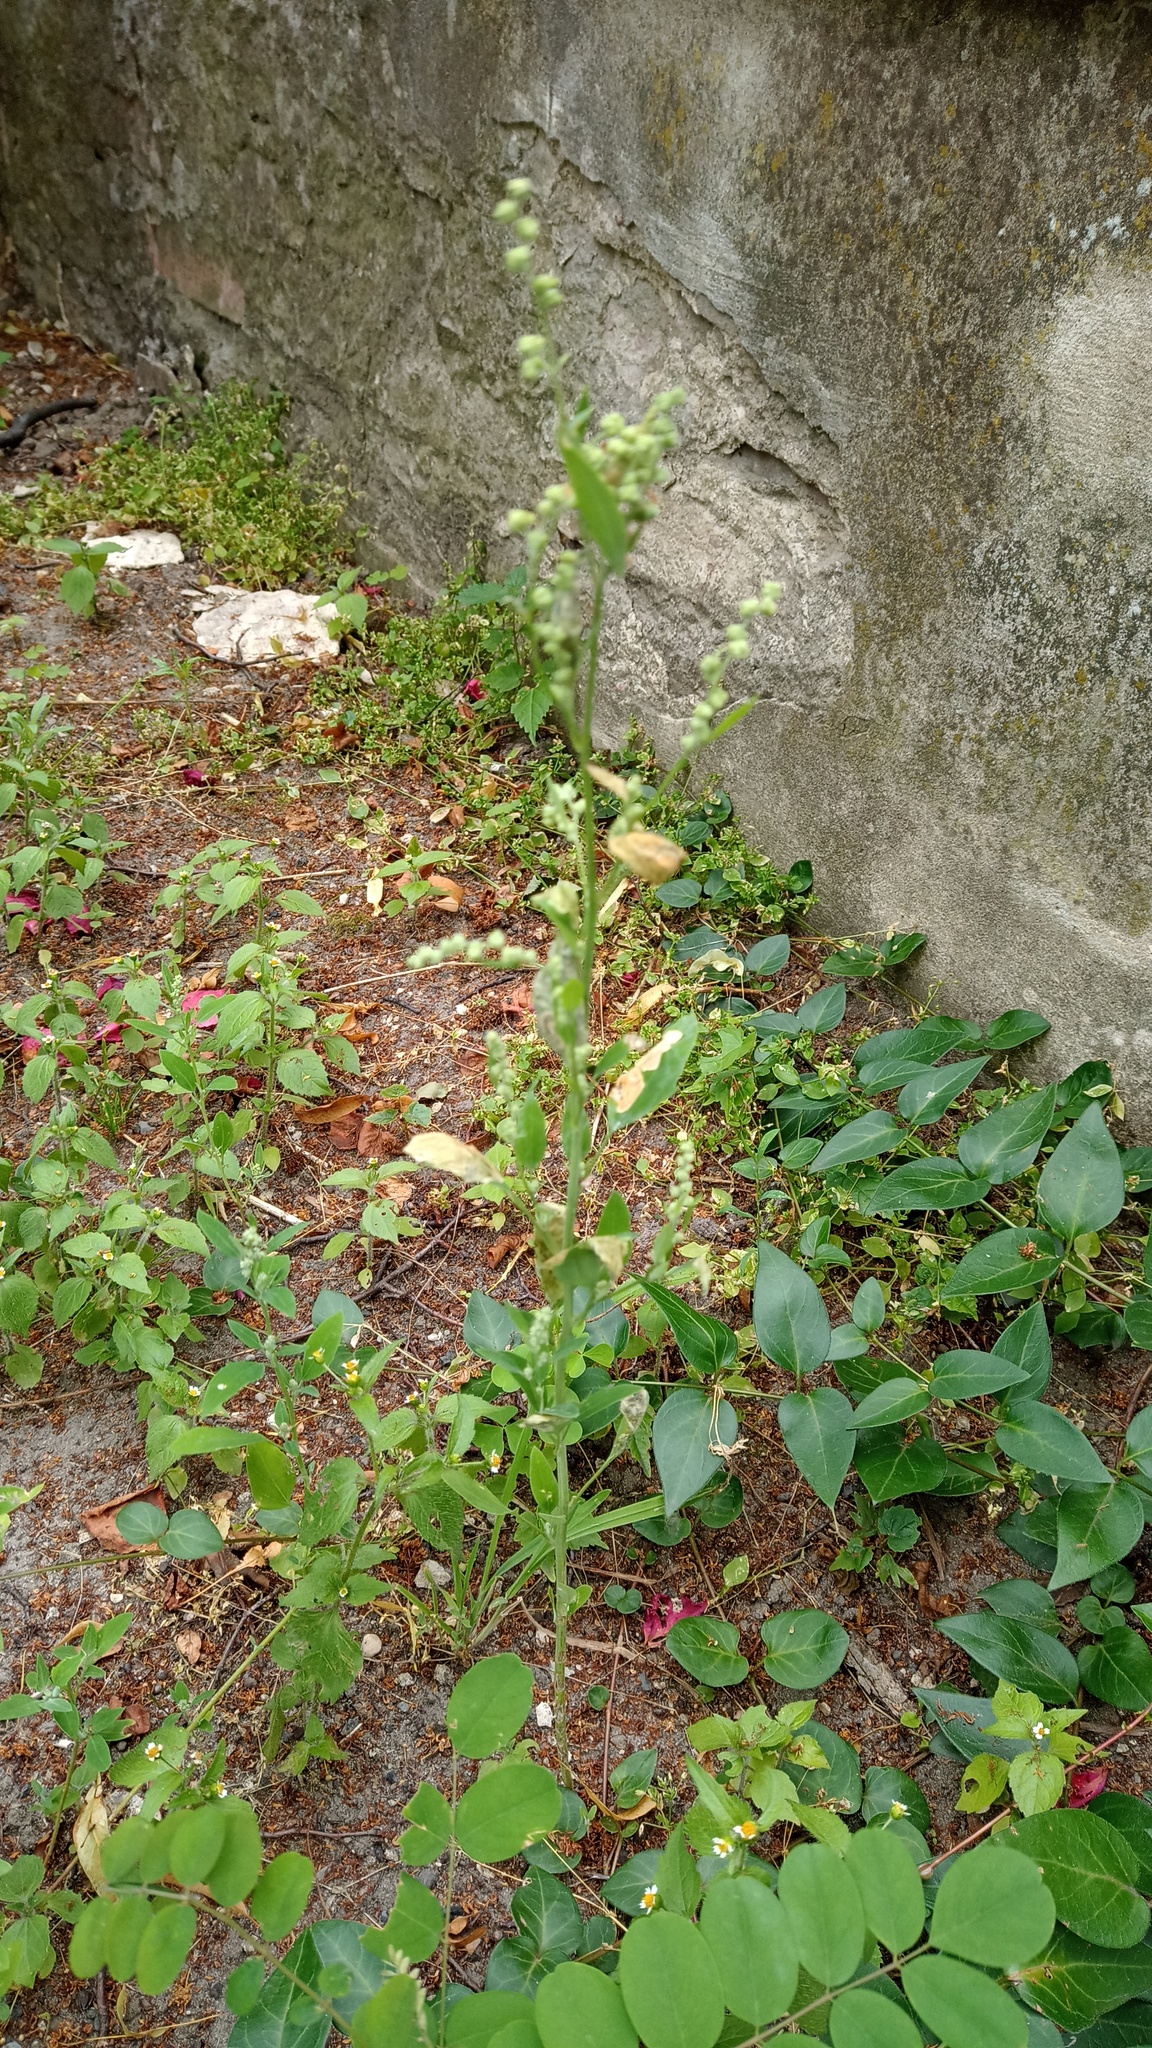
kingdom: Plantae
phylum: Tracheophyta
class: Magnoliopsida
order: Caryophyllales
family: Amaranthaceae
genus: Chenopodium
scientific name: Chenopodium album
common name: Fat-hen
